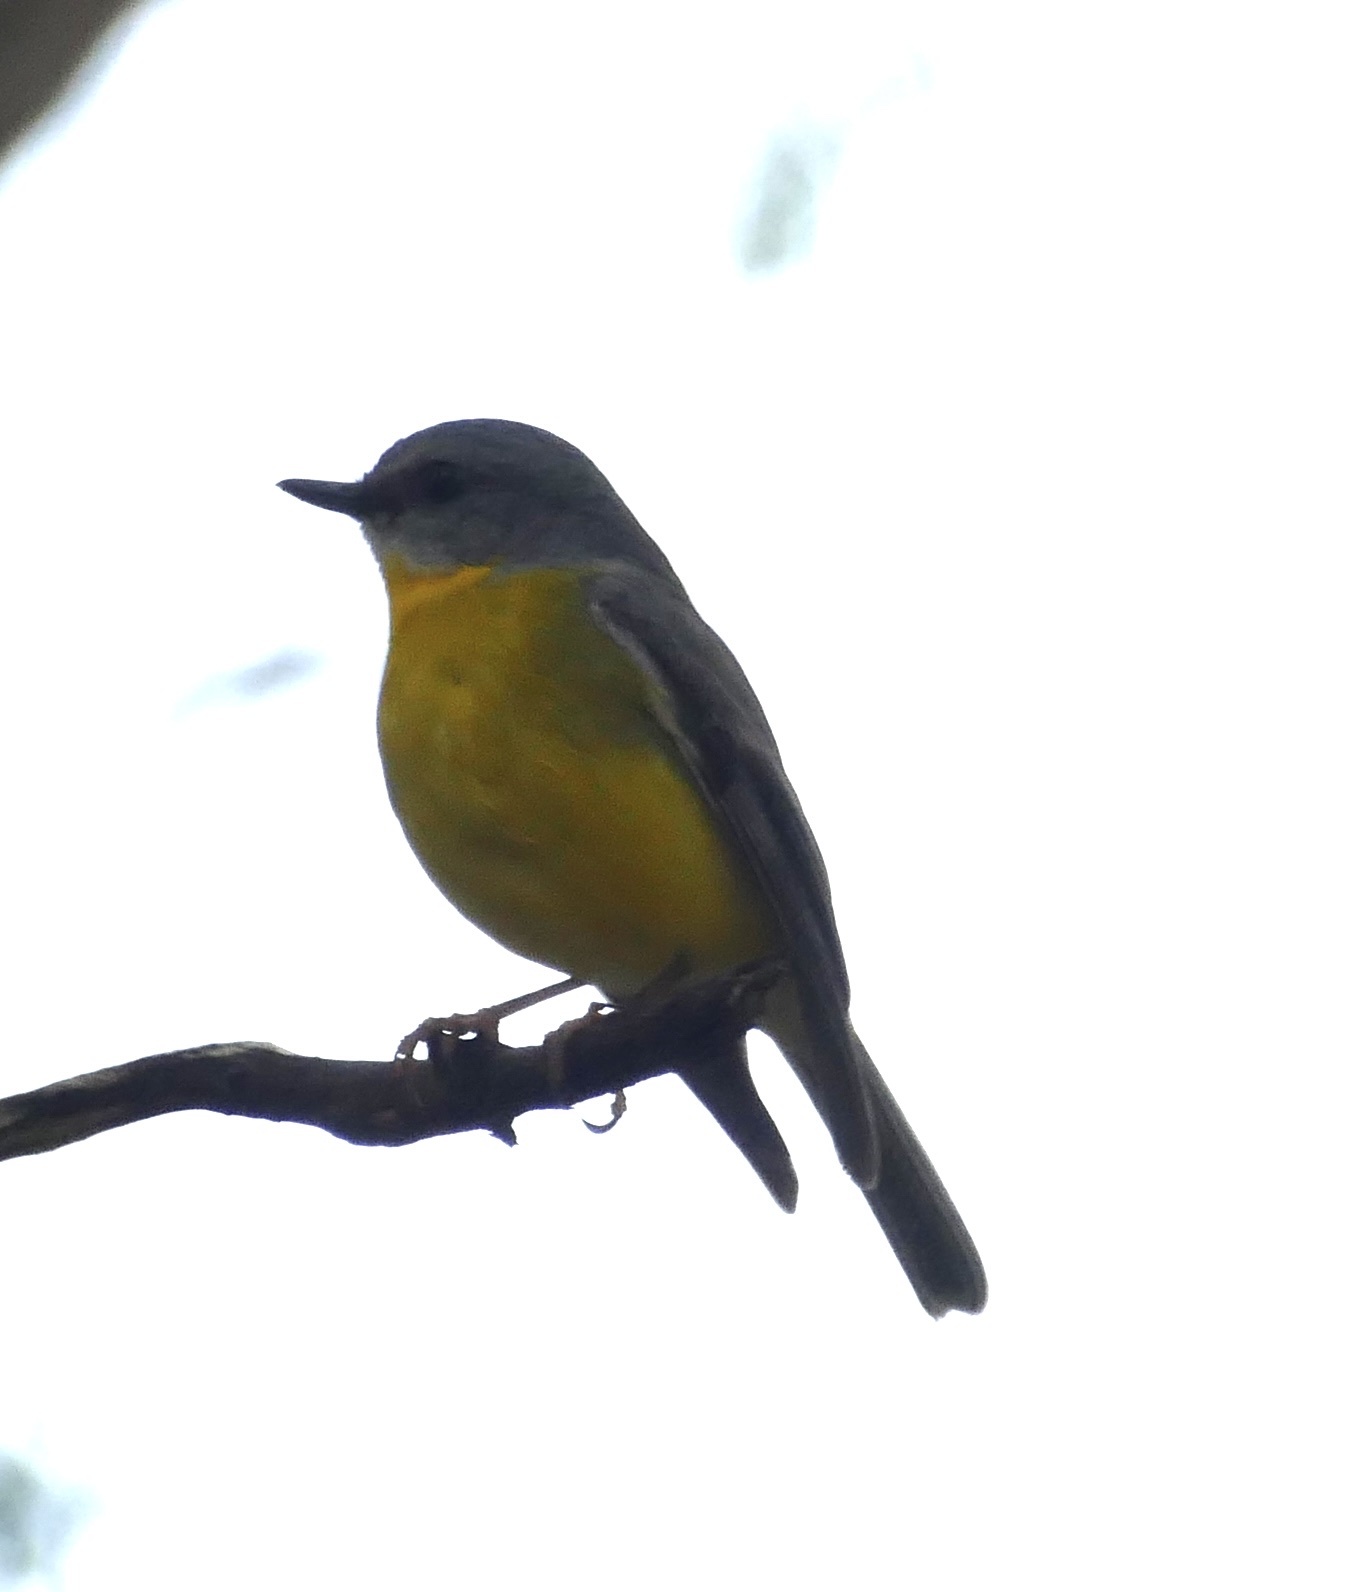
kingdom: Animalia
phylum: Chordata
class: Aves
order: Passeriformes
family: Petroicidae
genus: Eopsaltria
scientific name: Eopsaltria australis
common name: Eastern yellow robin
